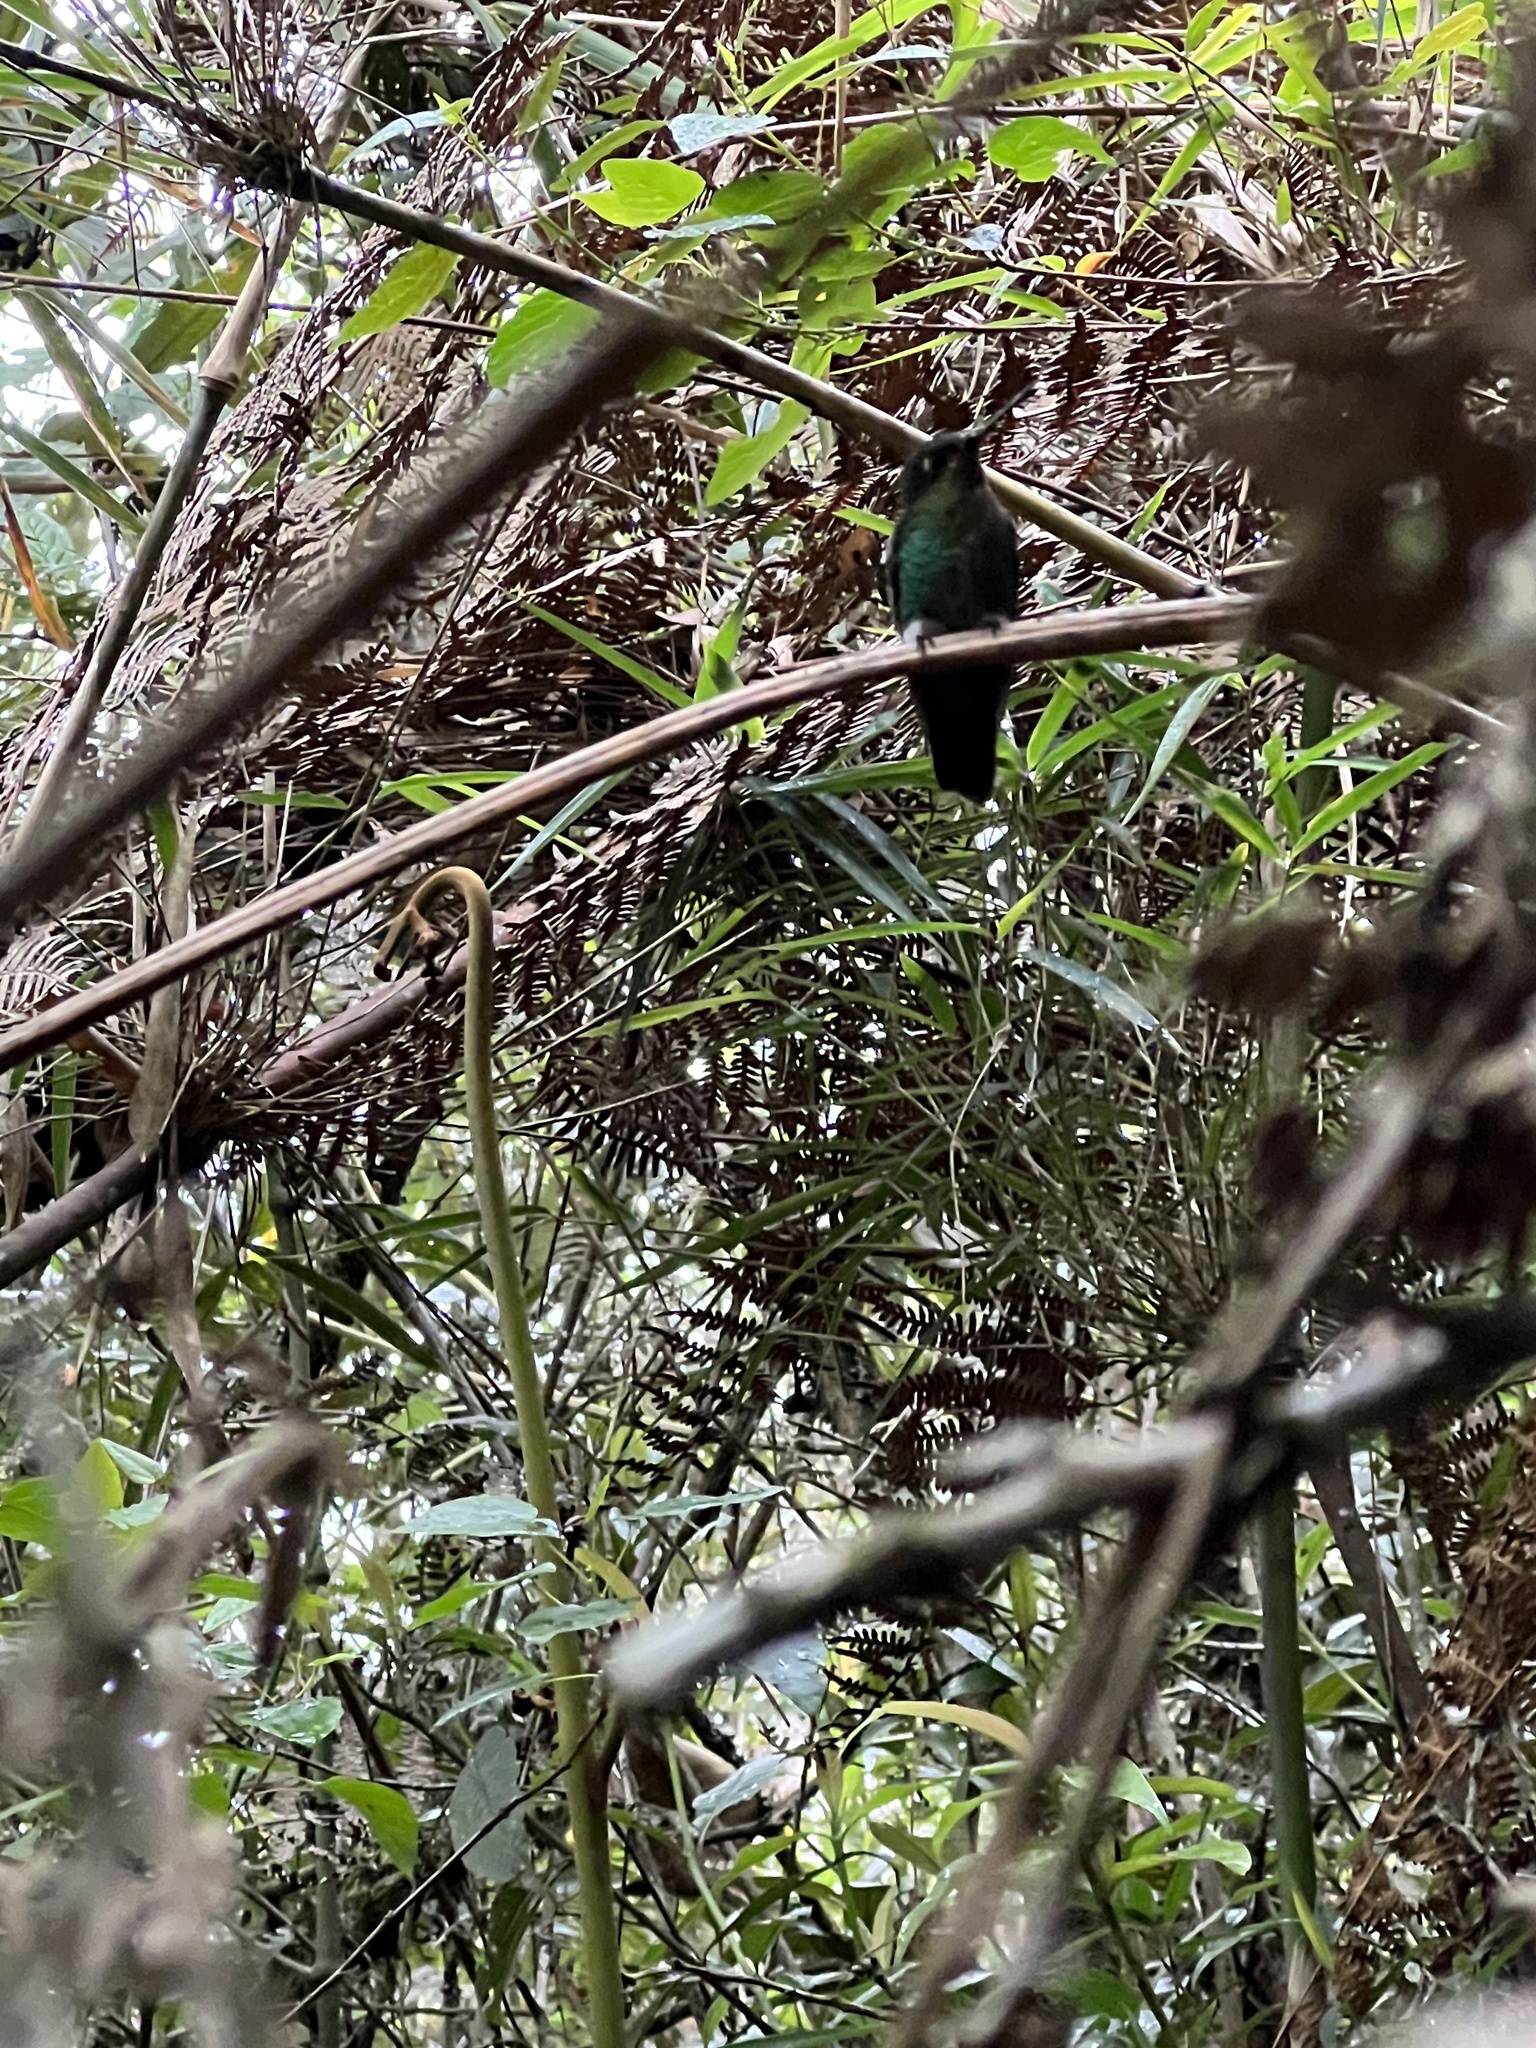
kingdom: Animalia
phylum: Chordata
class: Aves
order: Apodiformes
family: Trochilidae
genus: Eriocnemis
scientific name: Eriocnemis vestita
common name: Glowing puffleg
